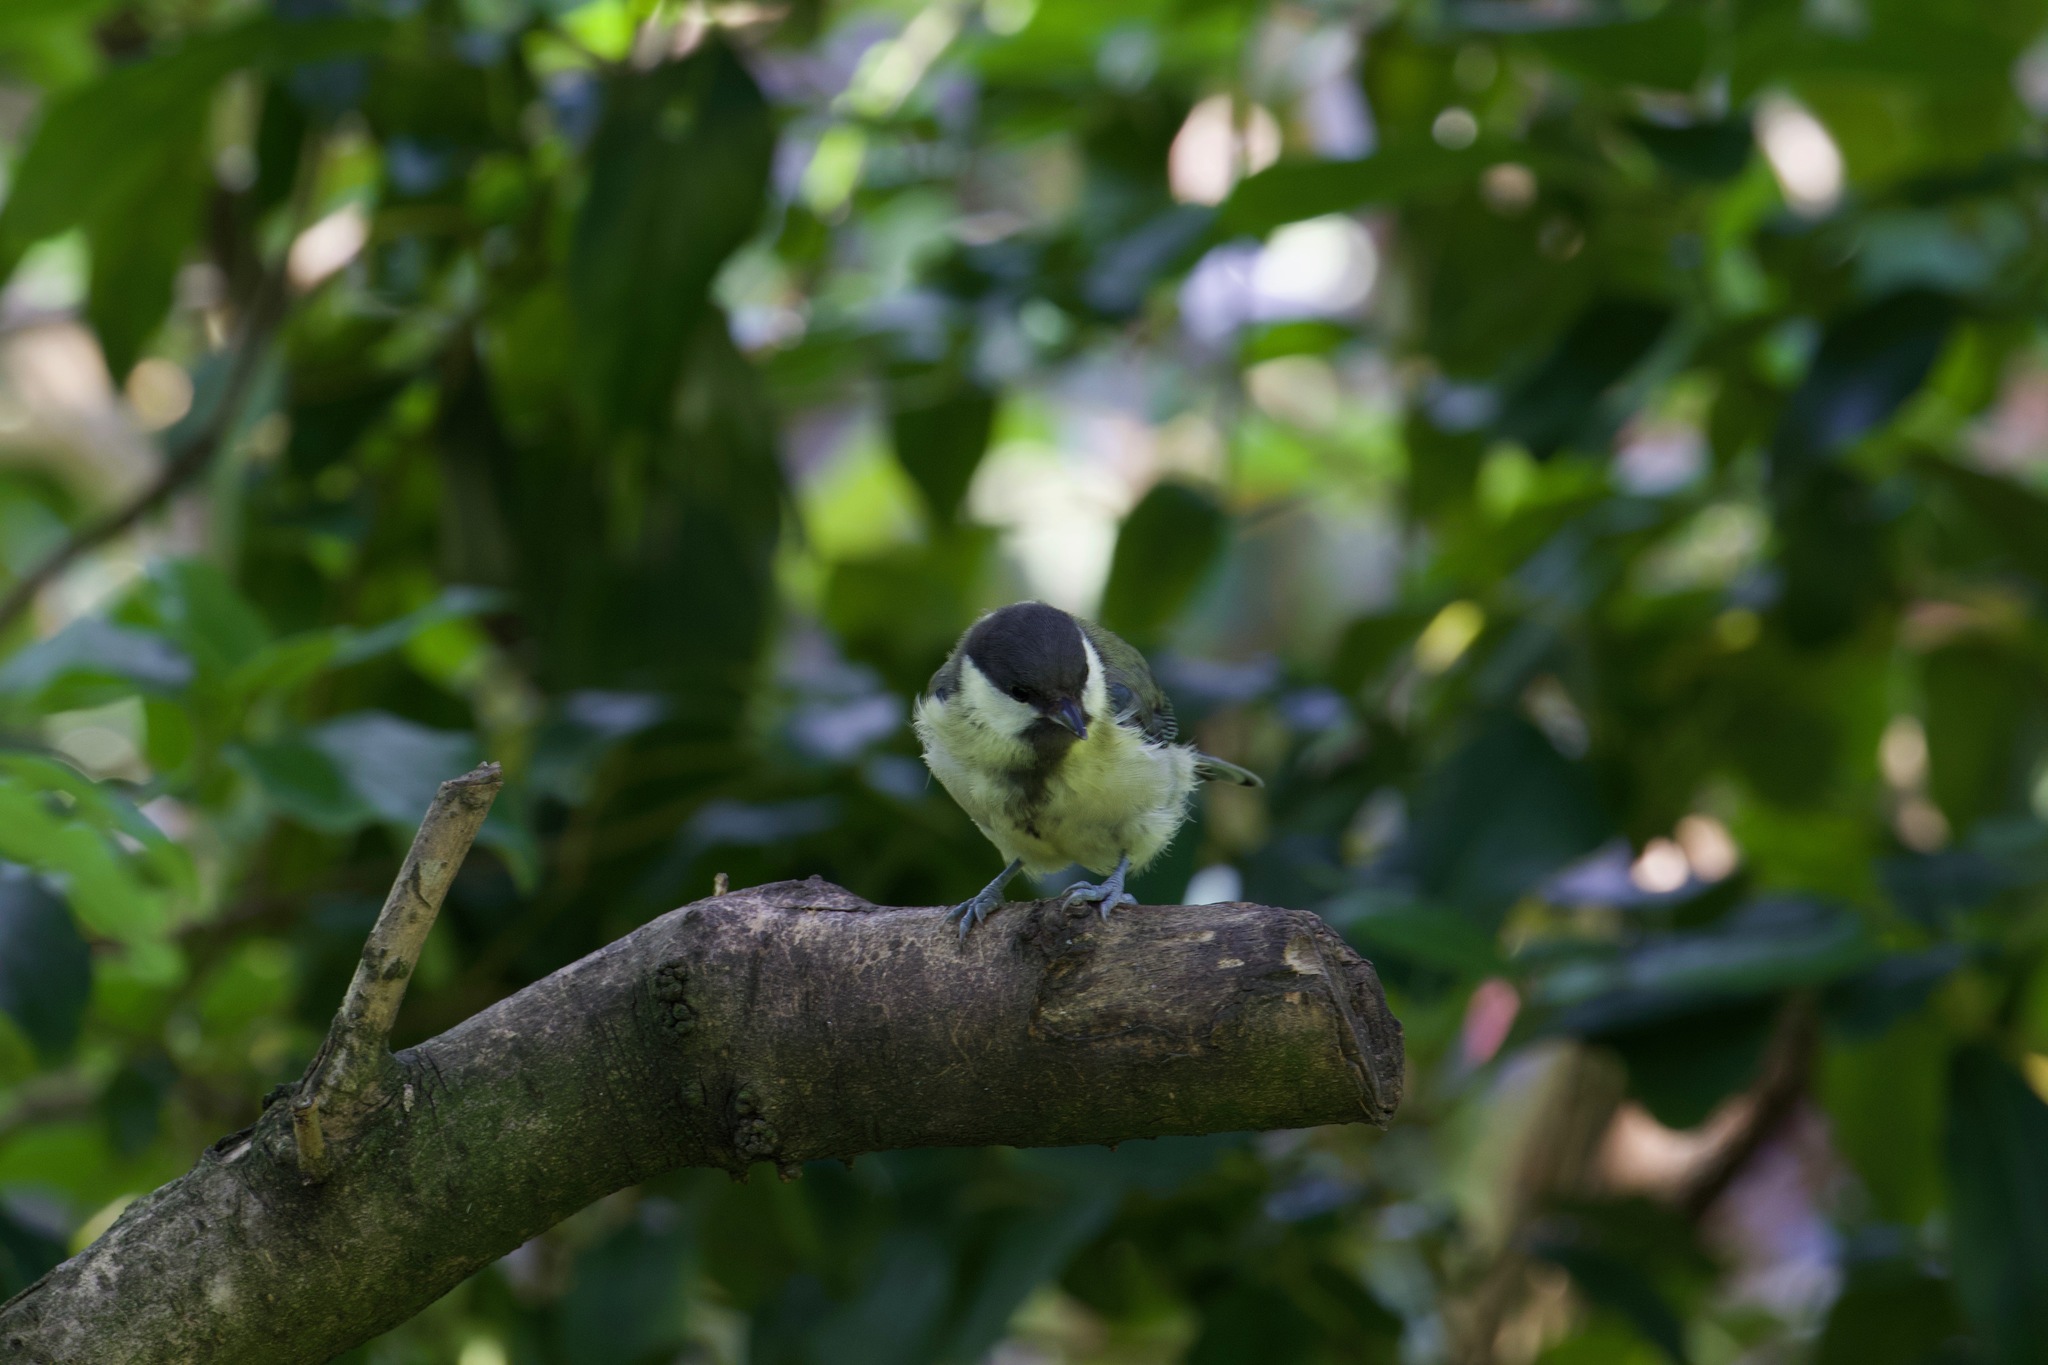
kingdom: Animalia
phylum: Chordata
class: Aves
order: Passeriformes
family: Paridae
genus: Parus
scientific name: Parus major
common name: Great tit
